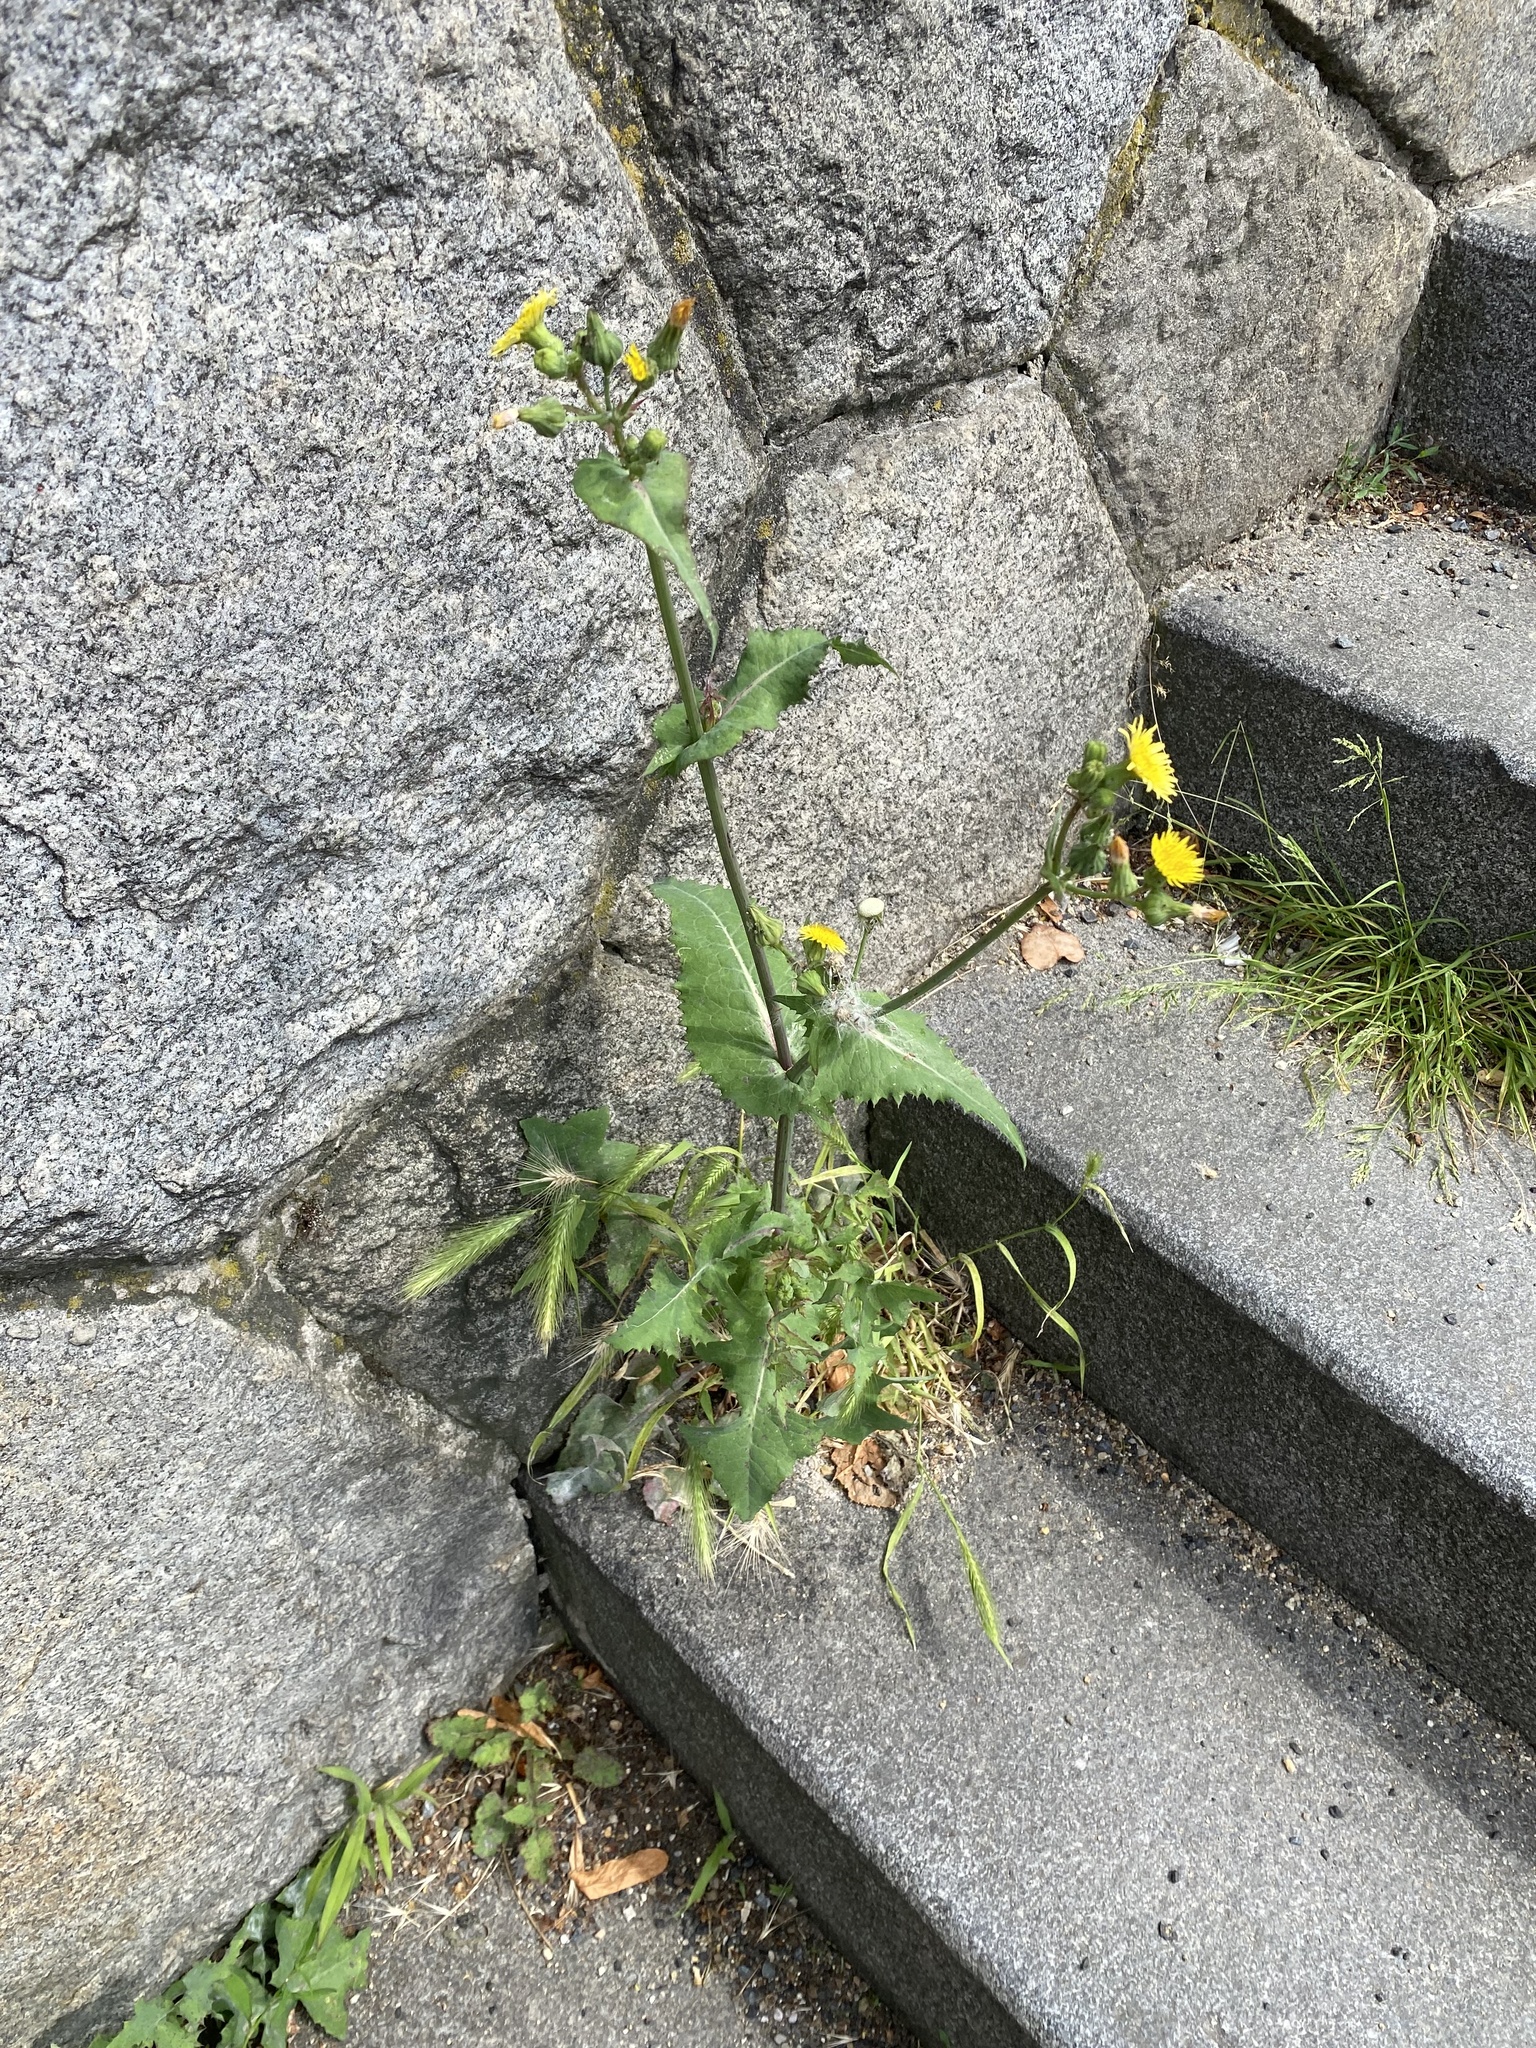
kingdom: Plantae
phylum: Tracheophyta
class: Magnoliopsida
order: Asterales
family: Asteraceae
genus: Sonchus
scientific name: Sonchus oleraceus
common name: Common sowthistle
